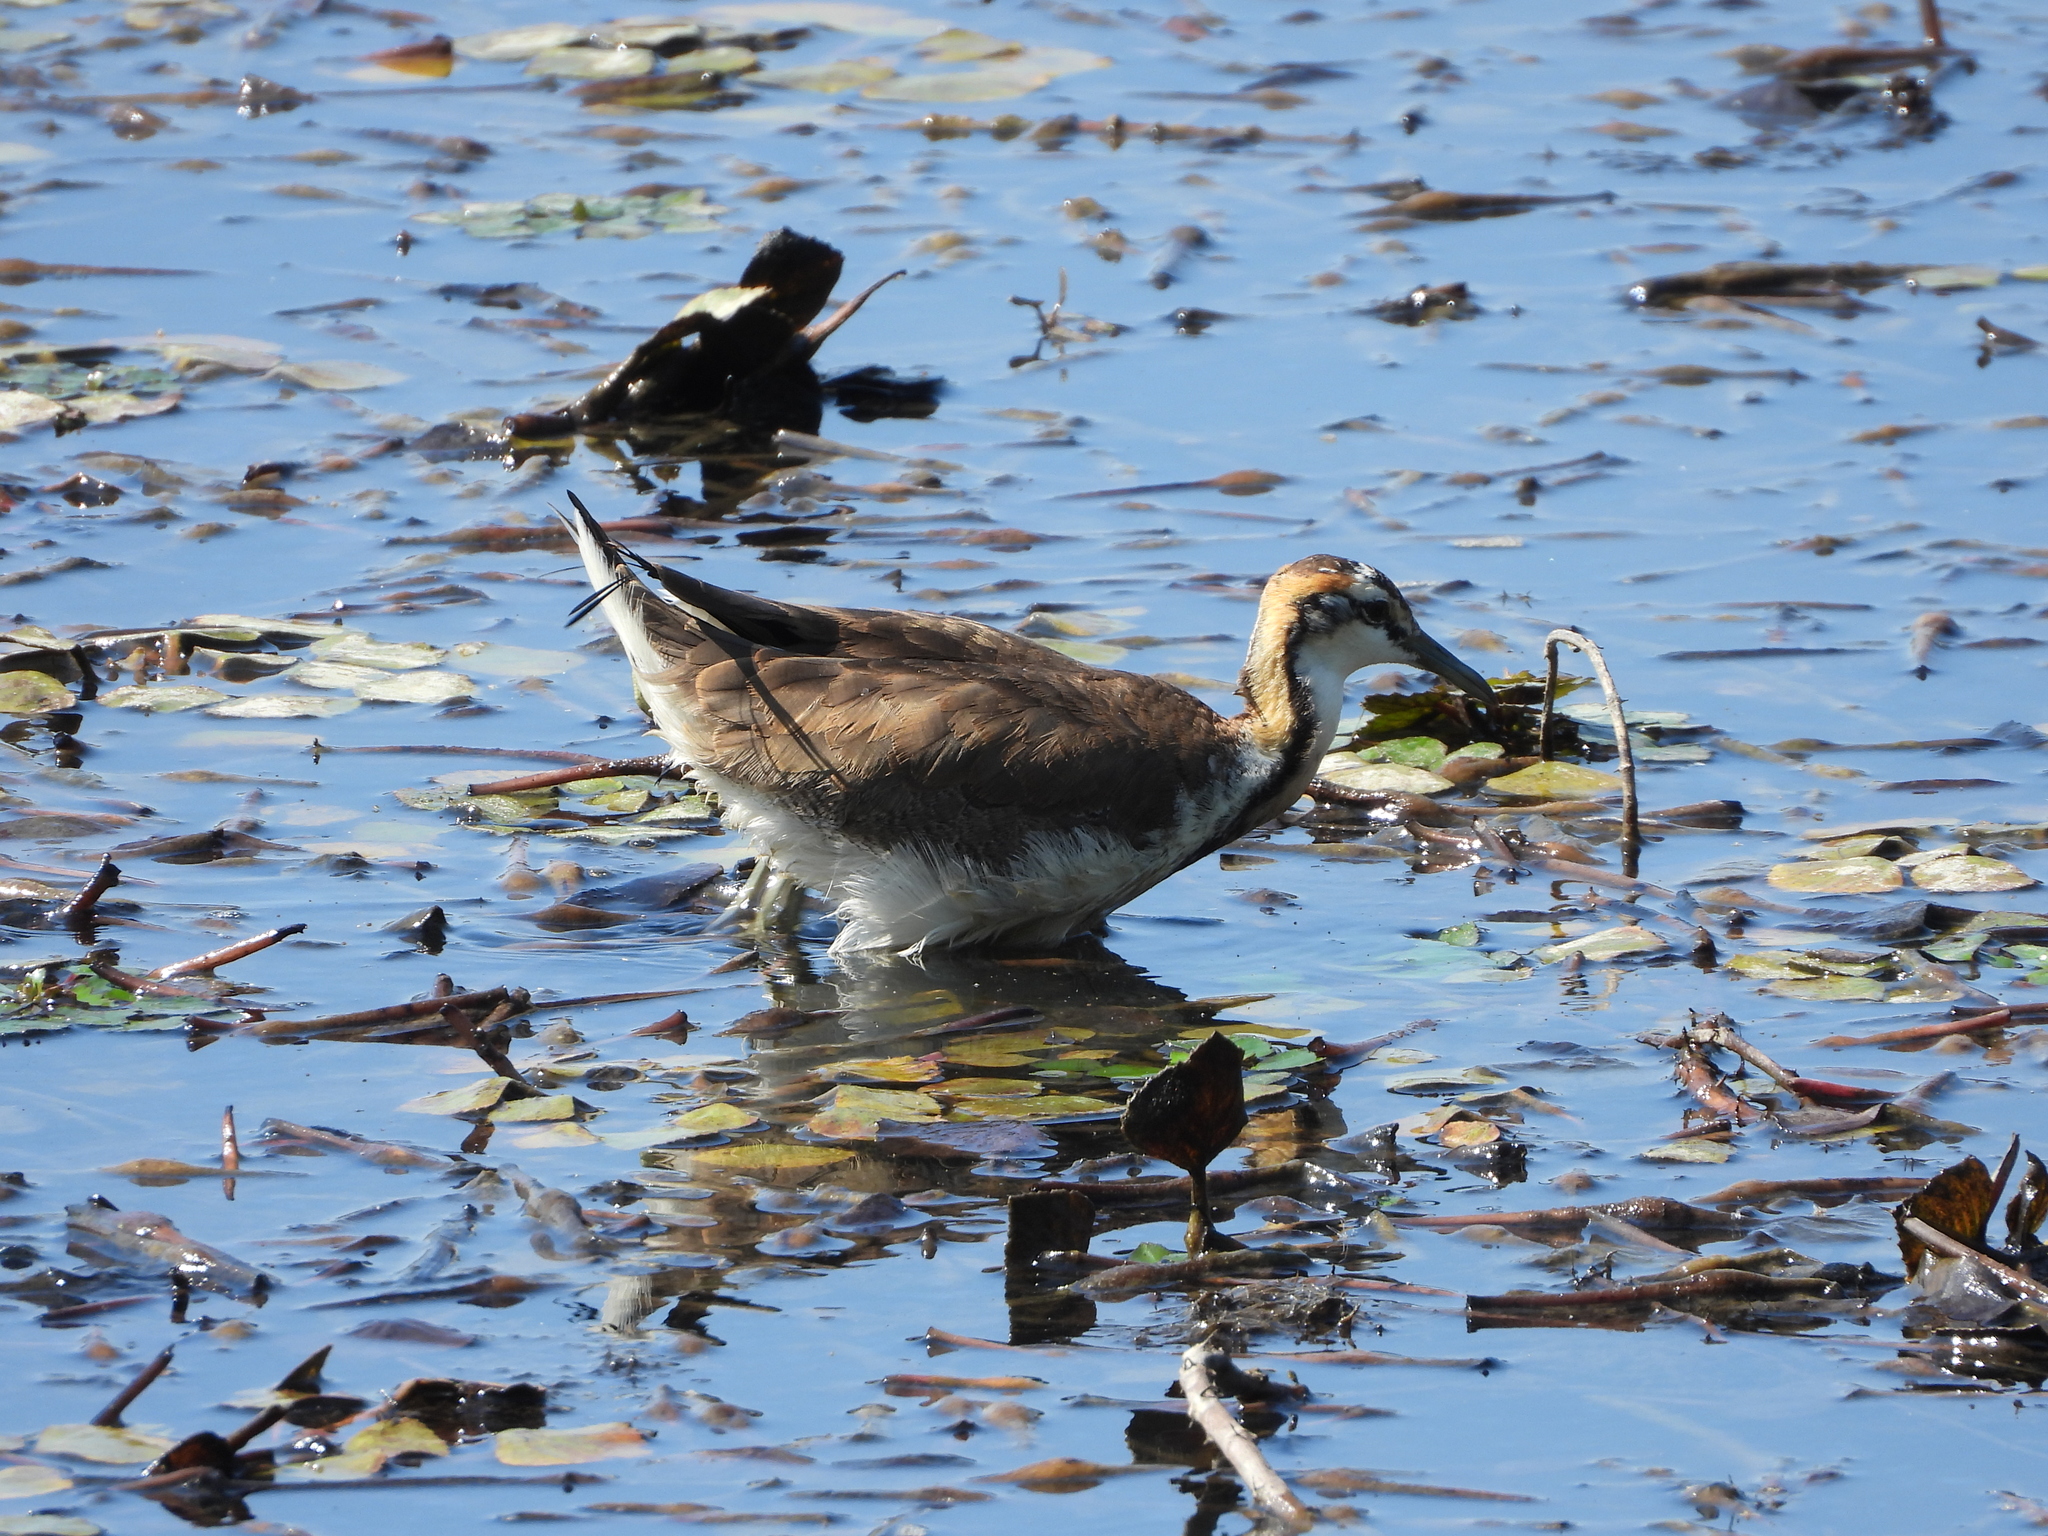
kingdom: Animalia
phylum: Chordata
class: Aves
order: Charadriiformes
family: Jacanidae
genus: Hydrophasianus
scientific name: Hydrophasianus chirurgus
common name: Pheasant-tailed jacana
